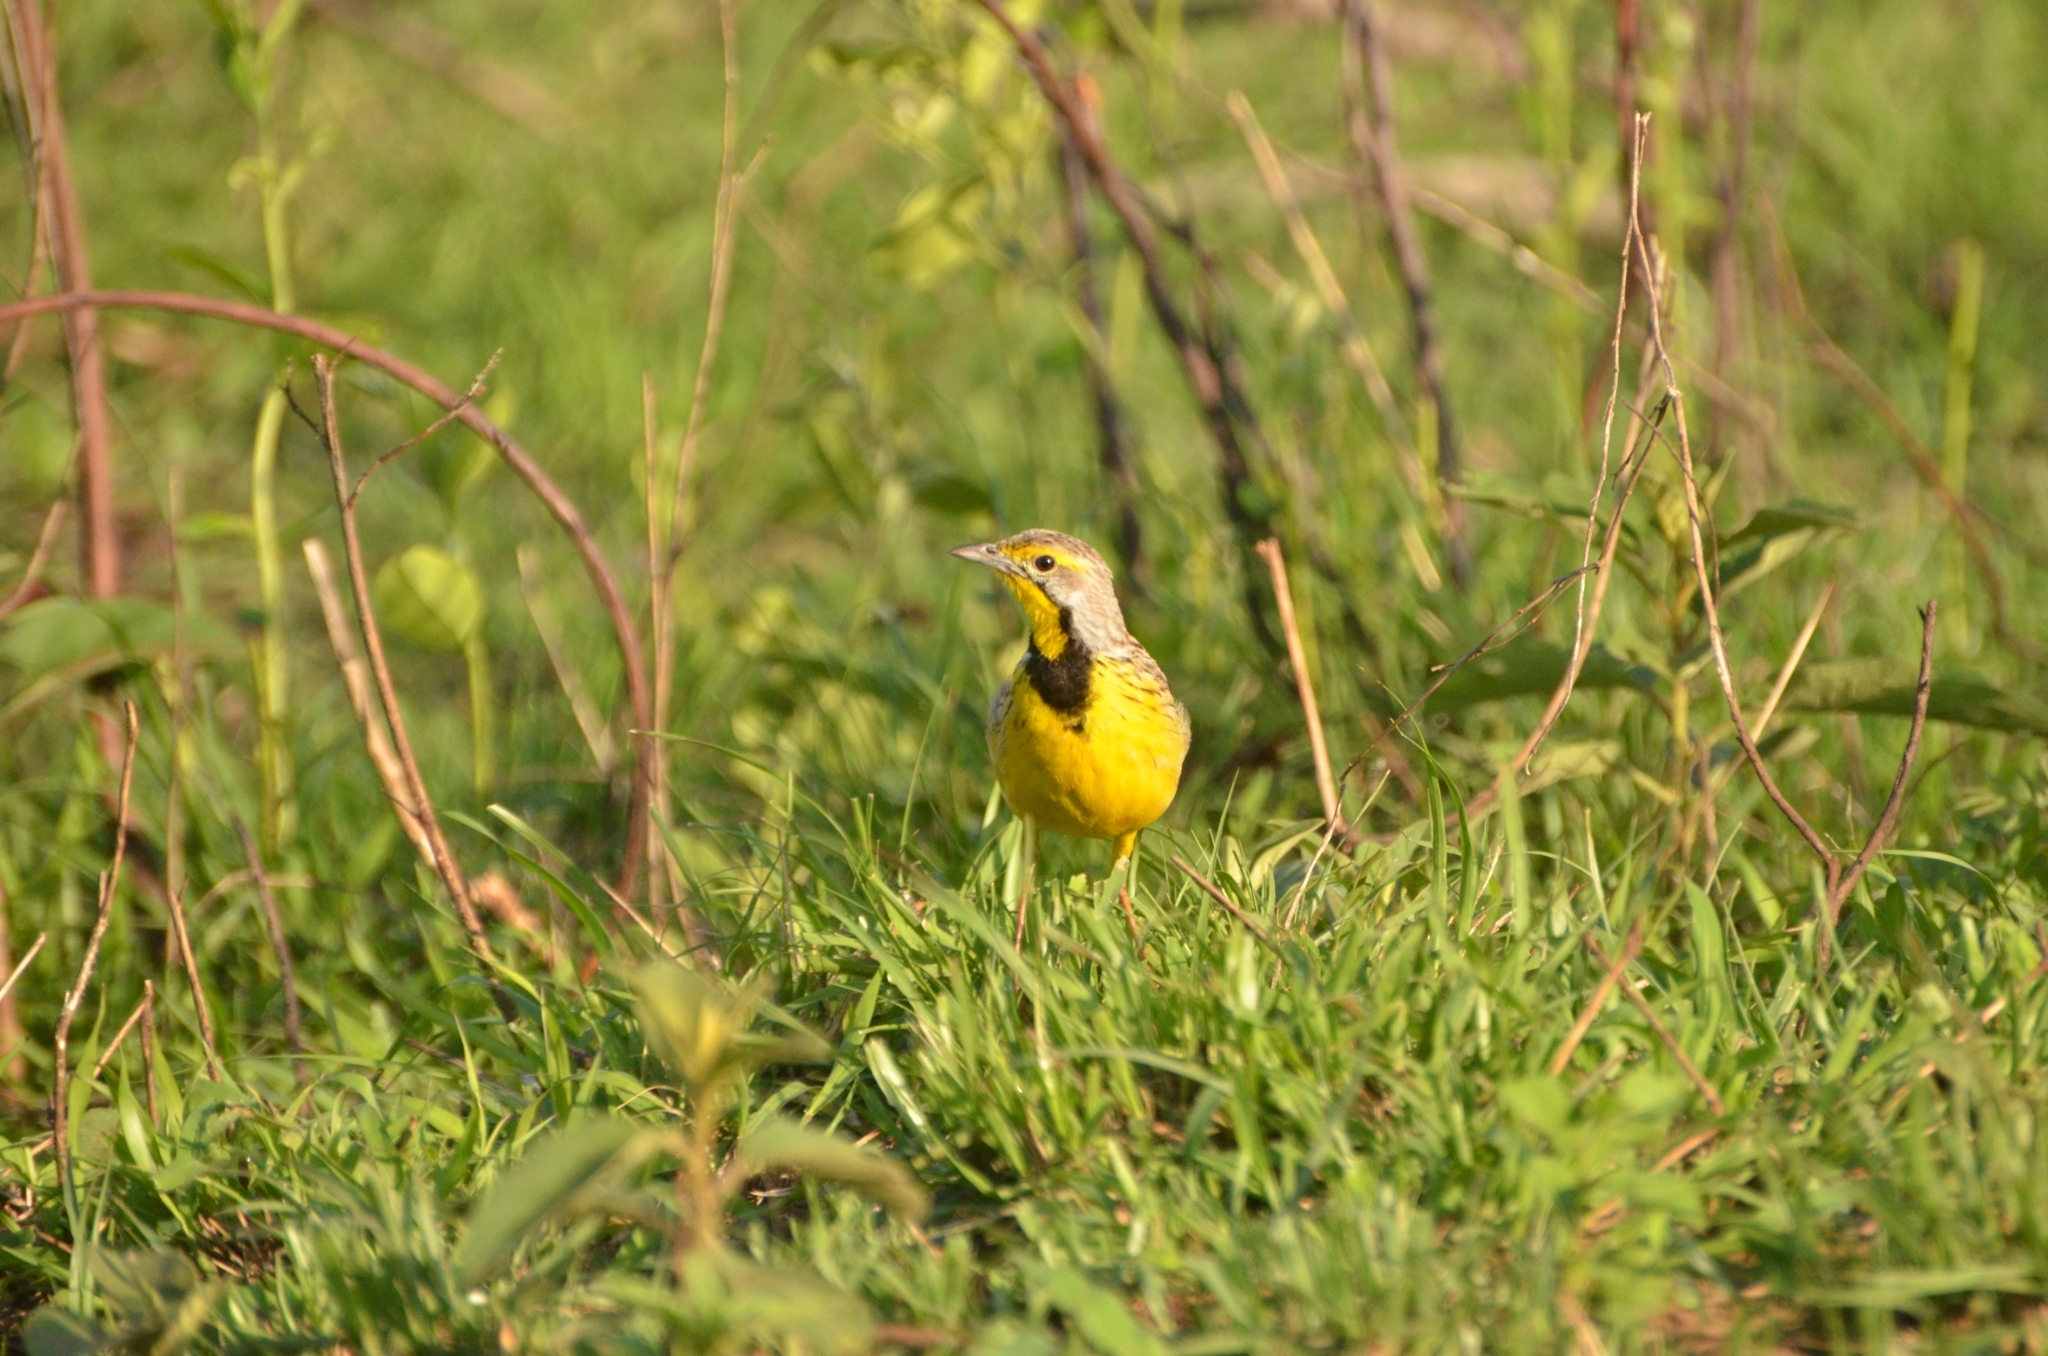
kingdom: Animalia
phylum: Chordata
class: Aves
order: Passeriformes
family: Motacillidae
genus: Macronyx
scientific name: Macronyx croceus
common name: Yellow-throated longclaw
